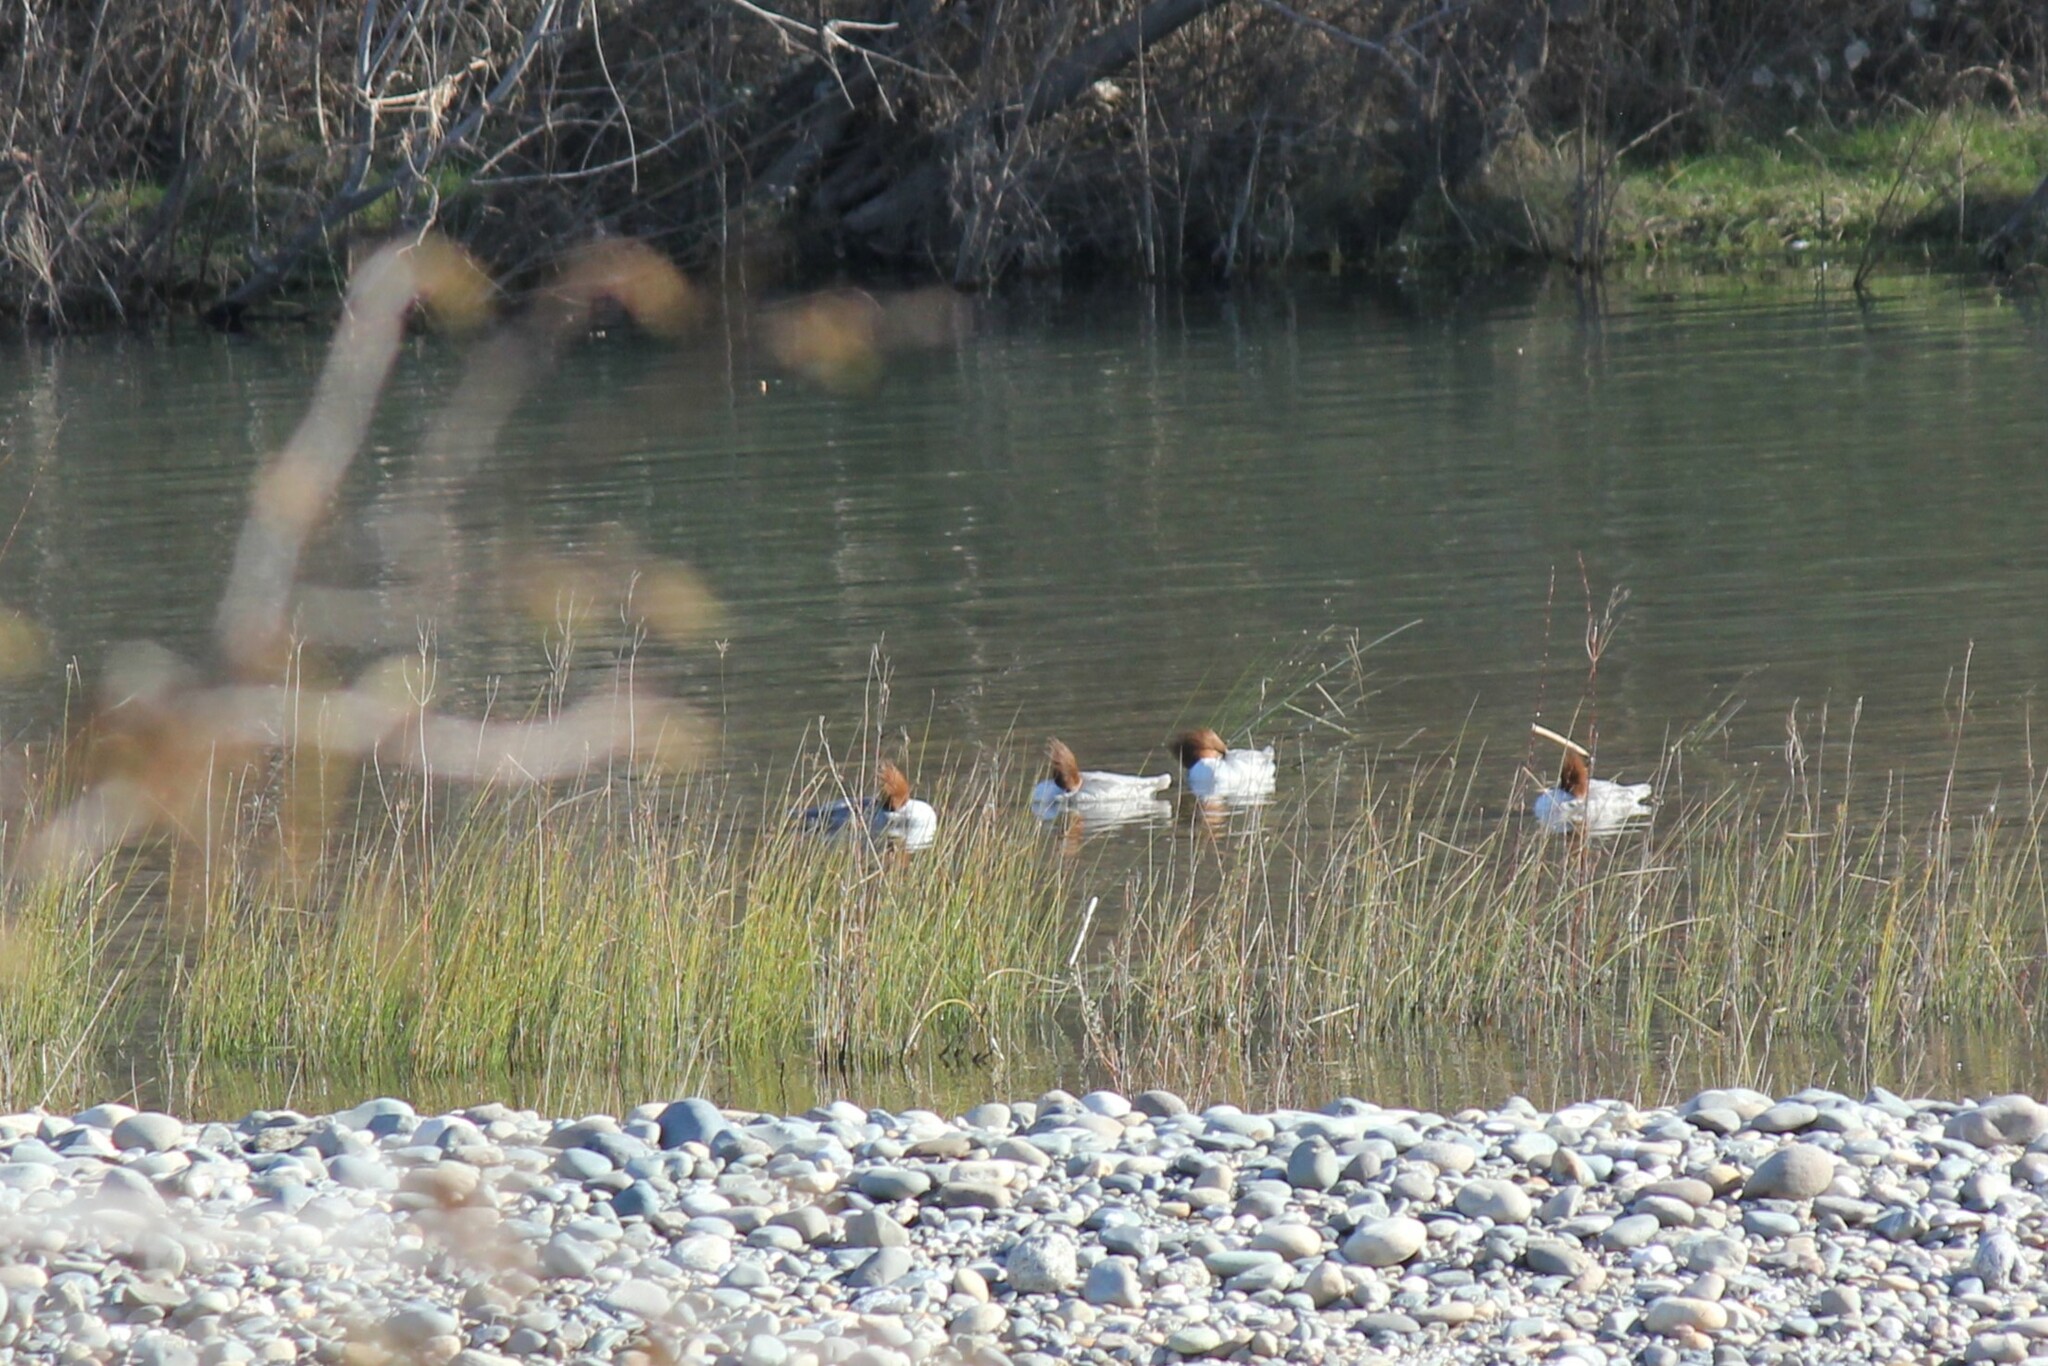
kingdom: Animalia
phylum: Chordata
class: Aves
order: Anseriformes
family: Anatidae
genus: Mergus
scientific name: Mergus merganser
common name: Common merganser
